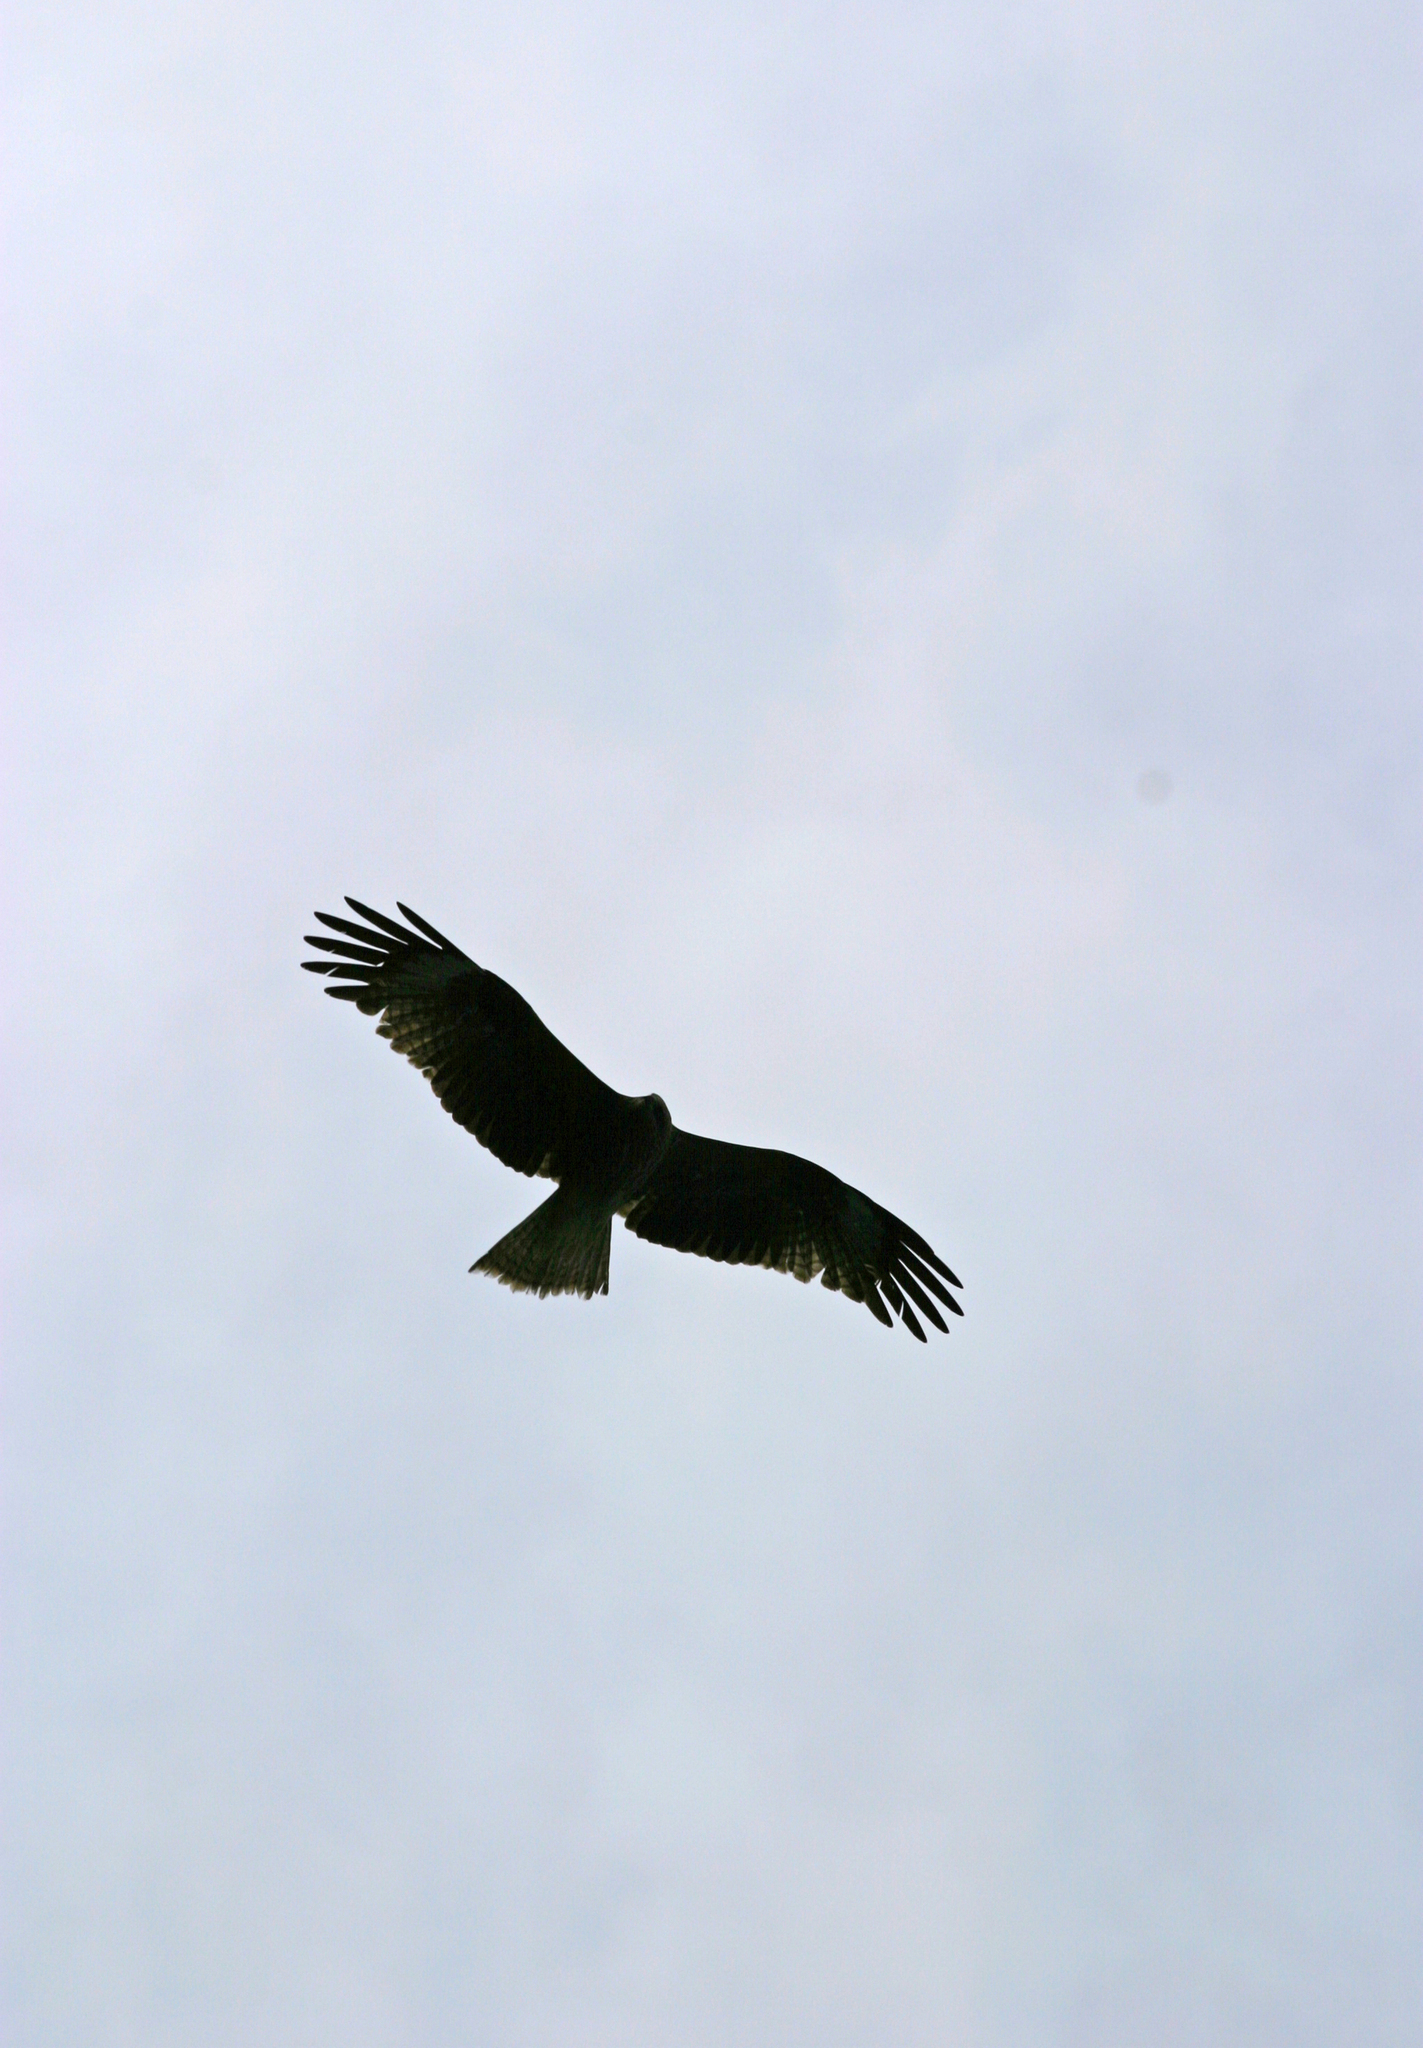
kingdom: Animalia
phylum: Chordata
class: Aves
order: Accipitriformes
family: Accipitridae
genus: Milvus
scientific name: Milvus migrans
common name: Black kite
